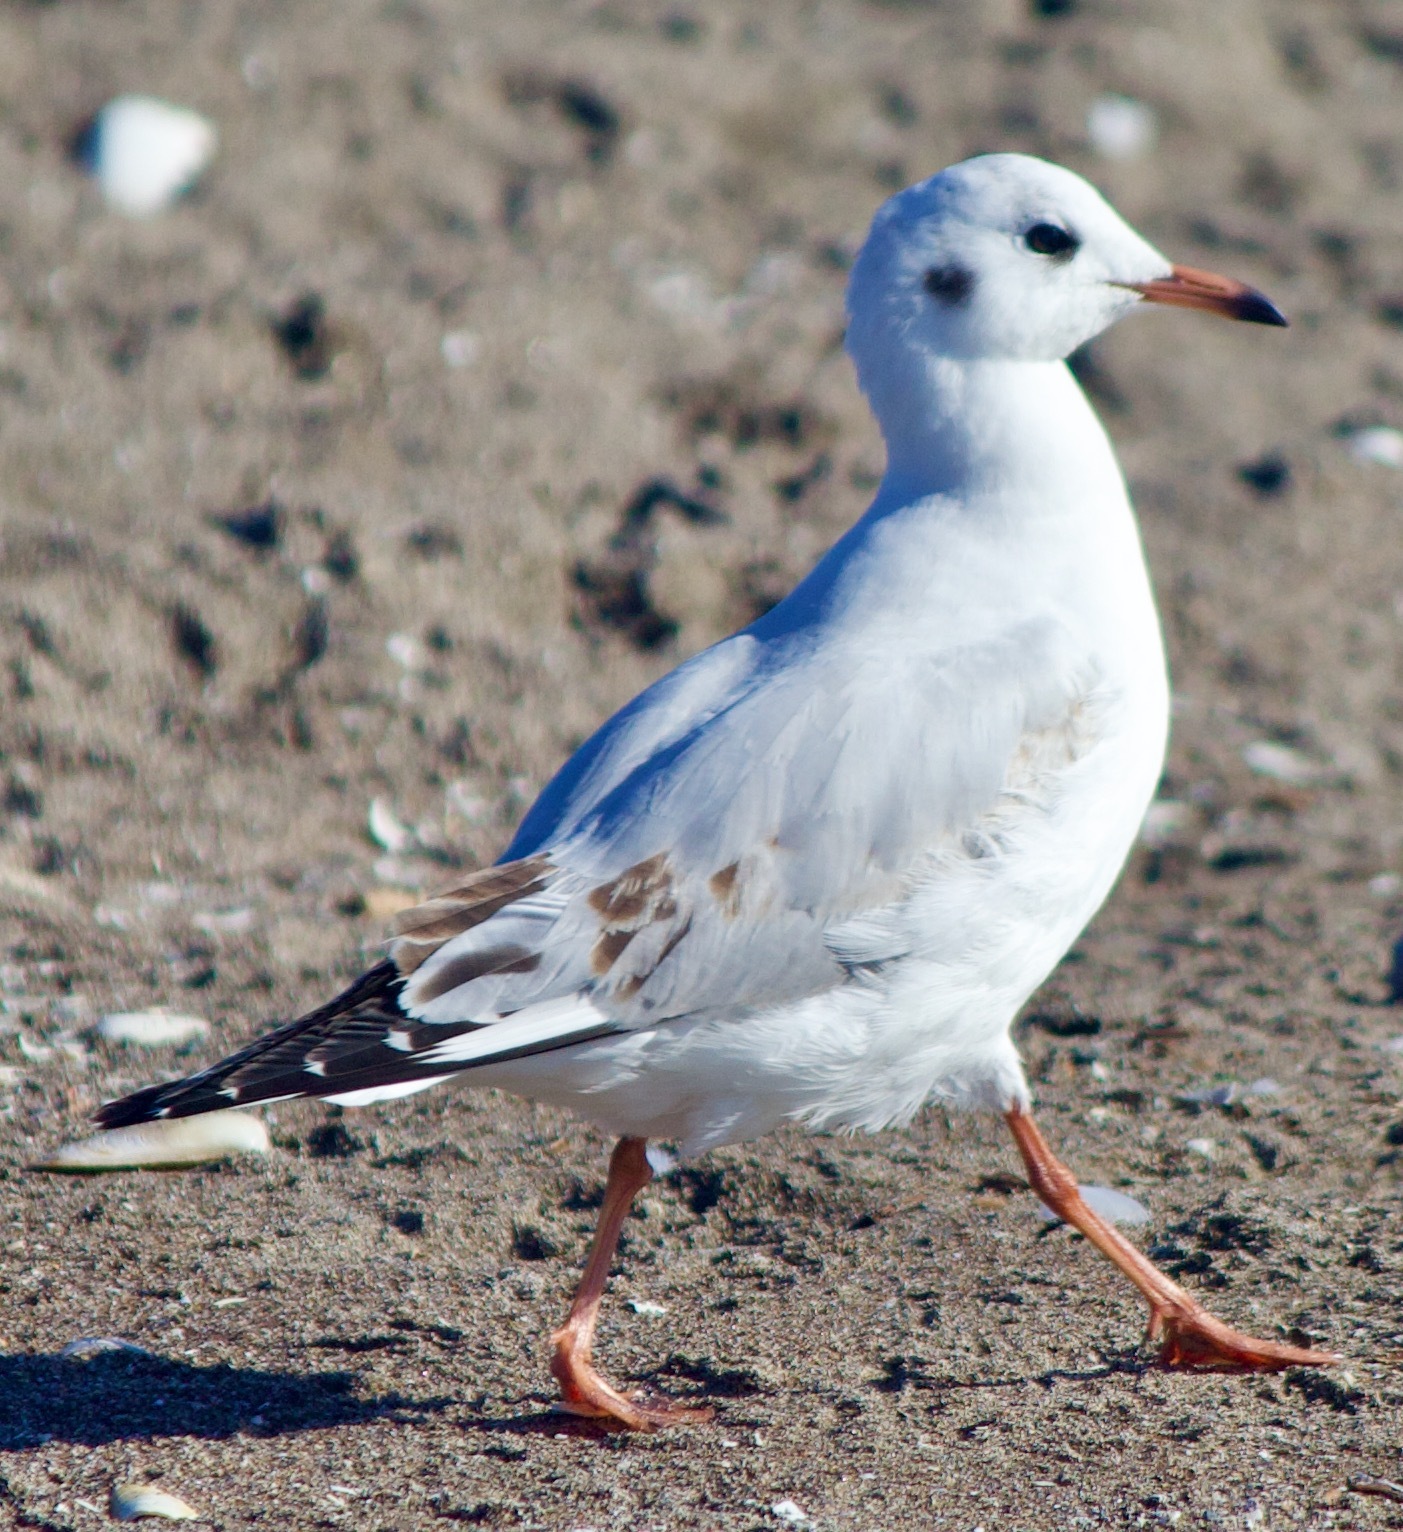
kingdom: Animalia
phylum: Chordata
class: Aves
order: Charadriiformes
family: Laridae
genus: Chroicocephalus
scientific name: Chroicocephalus maculipennis
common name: Brown-hooded gull
